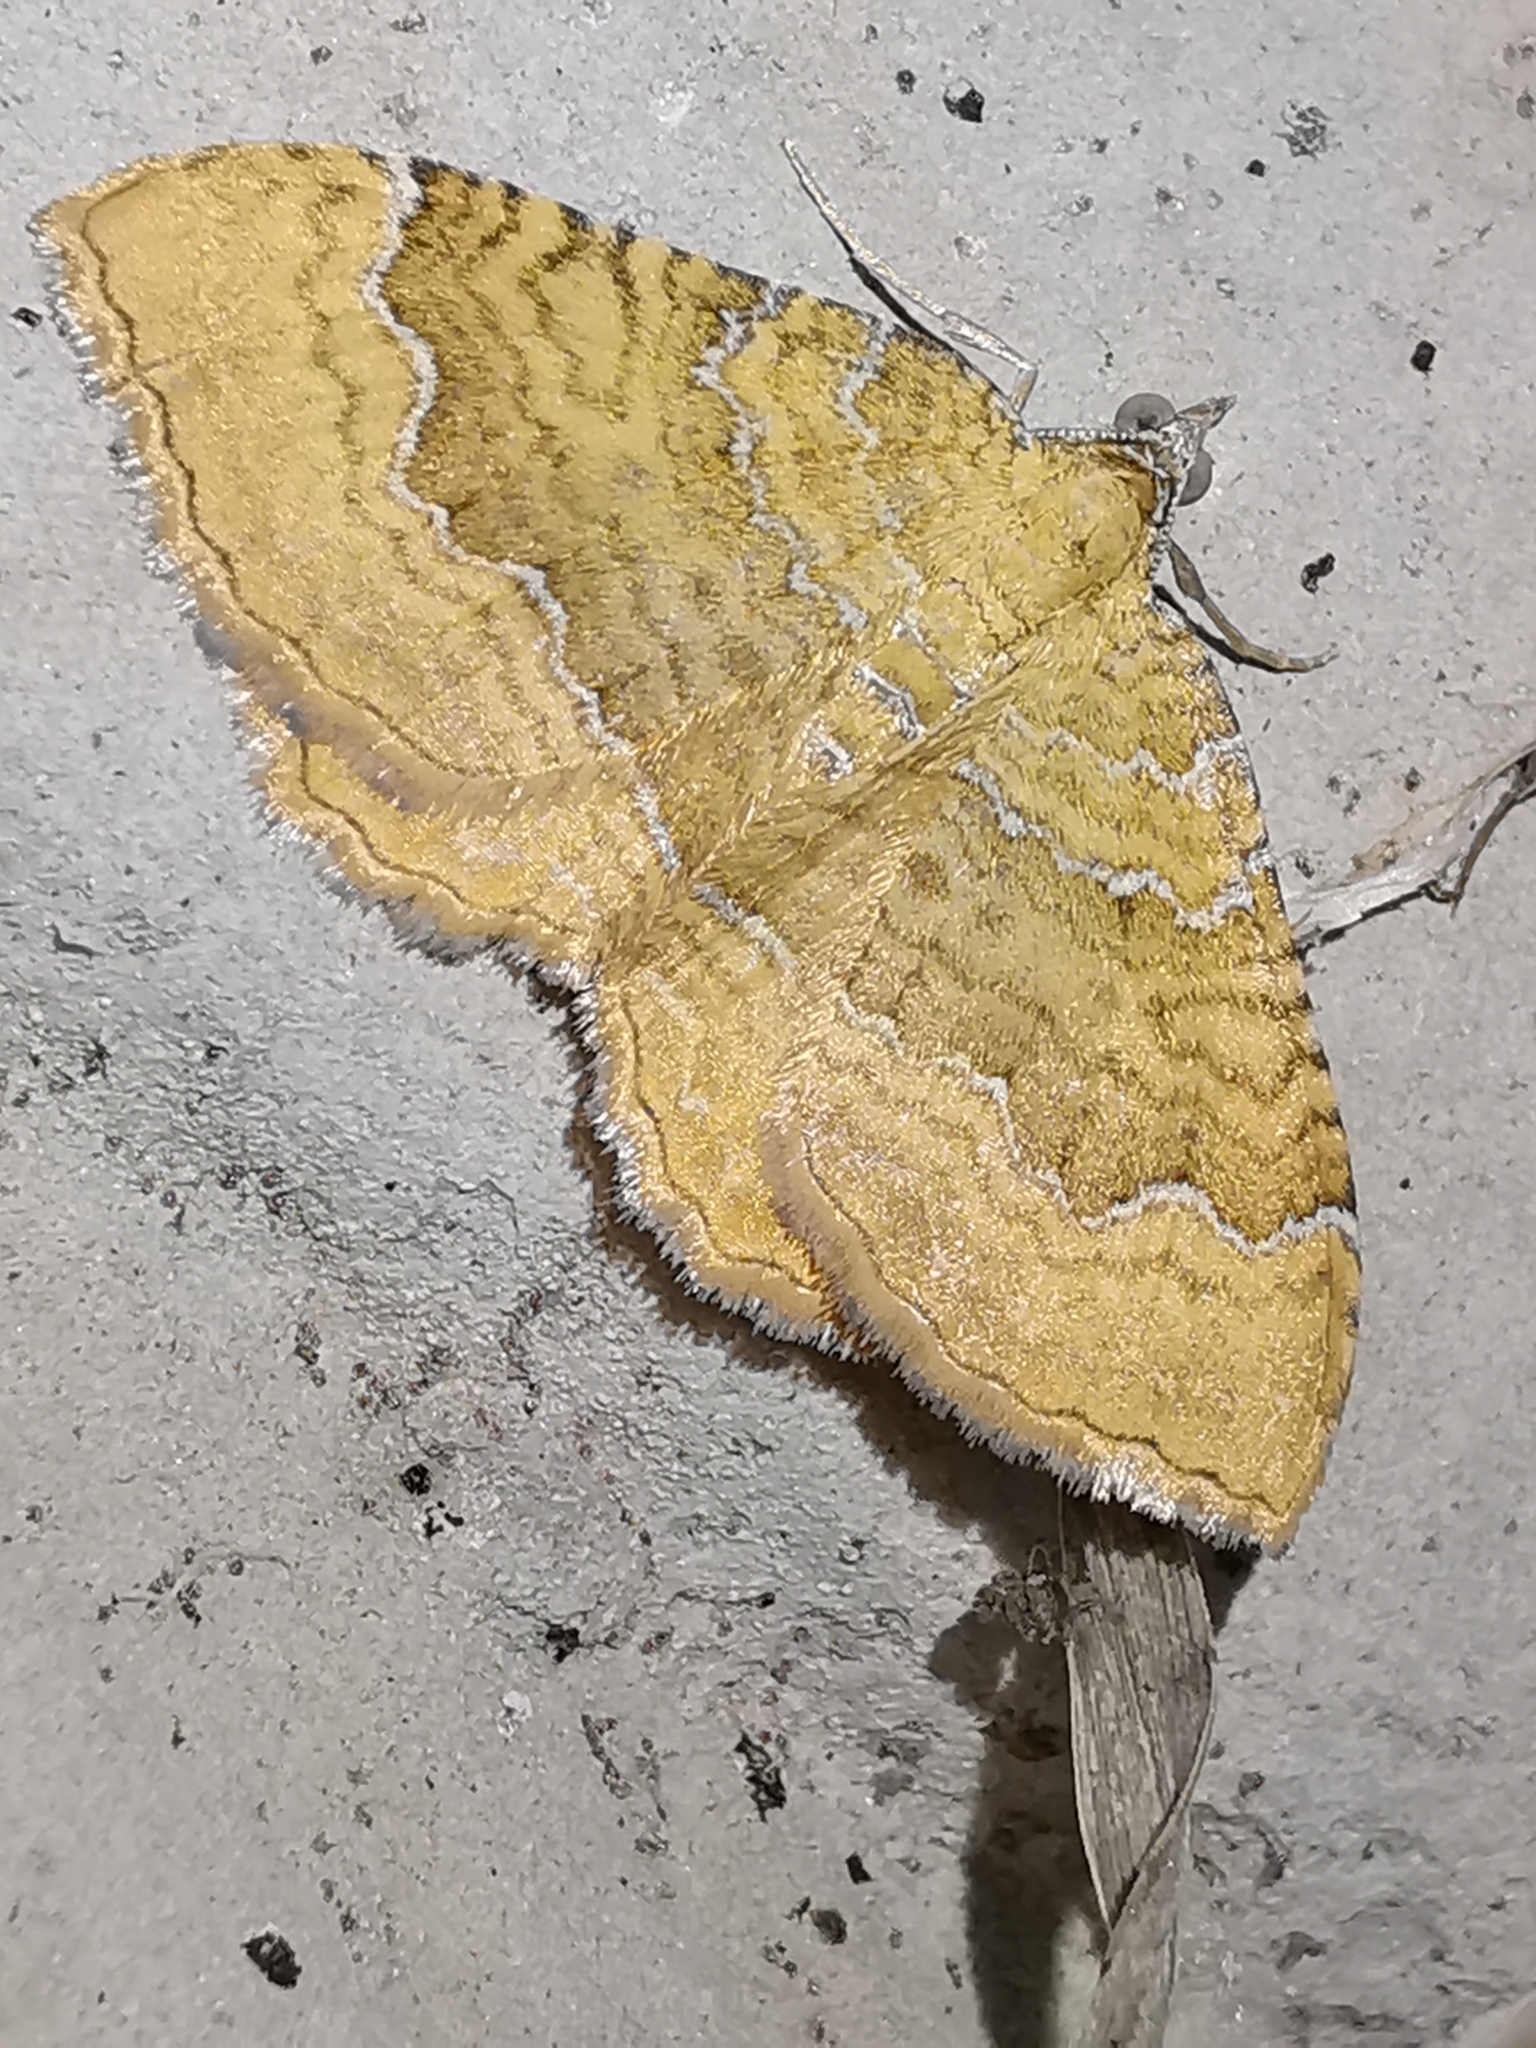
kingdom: Animalia
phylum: Arthropoda
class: Insecta
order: Lepidoptera
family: Geometridae
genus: Camptogramma
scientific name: Camptogramma bilineata
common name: Yellow shell
